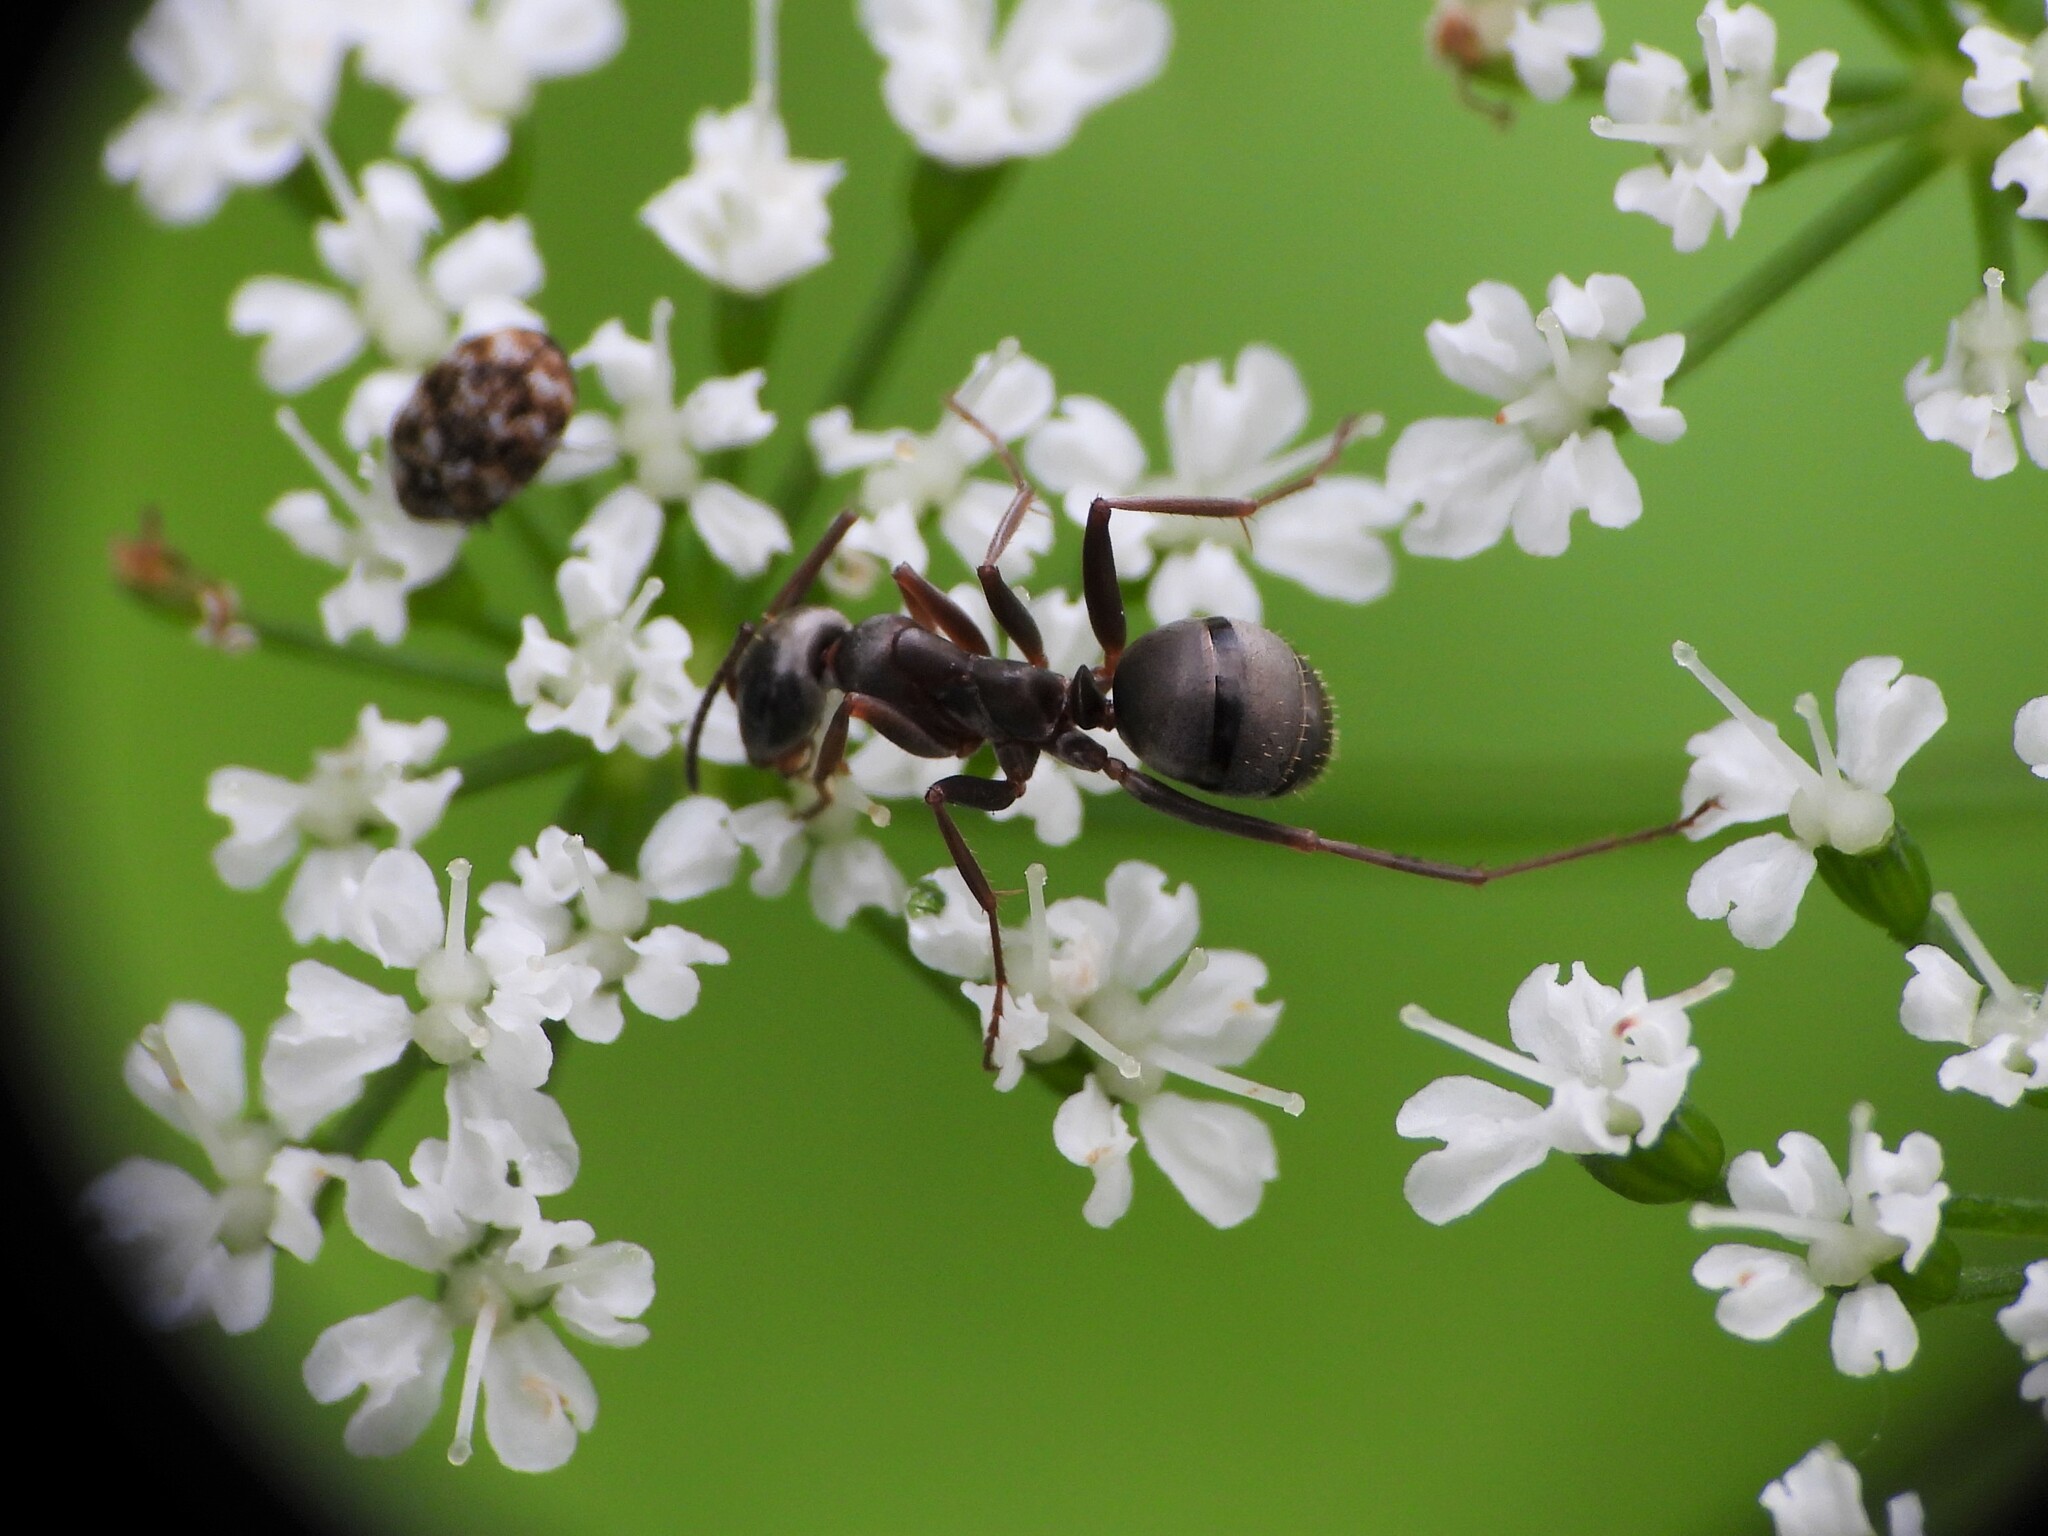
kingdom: Animalia
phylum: Arthropoda
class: Insecta
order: Hymenoptera
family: Formicidae
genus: Formica
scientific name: Formica fusca
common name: Silky ant
